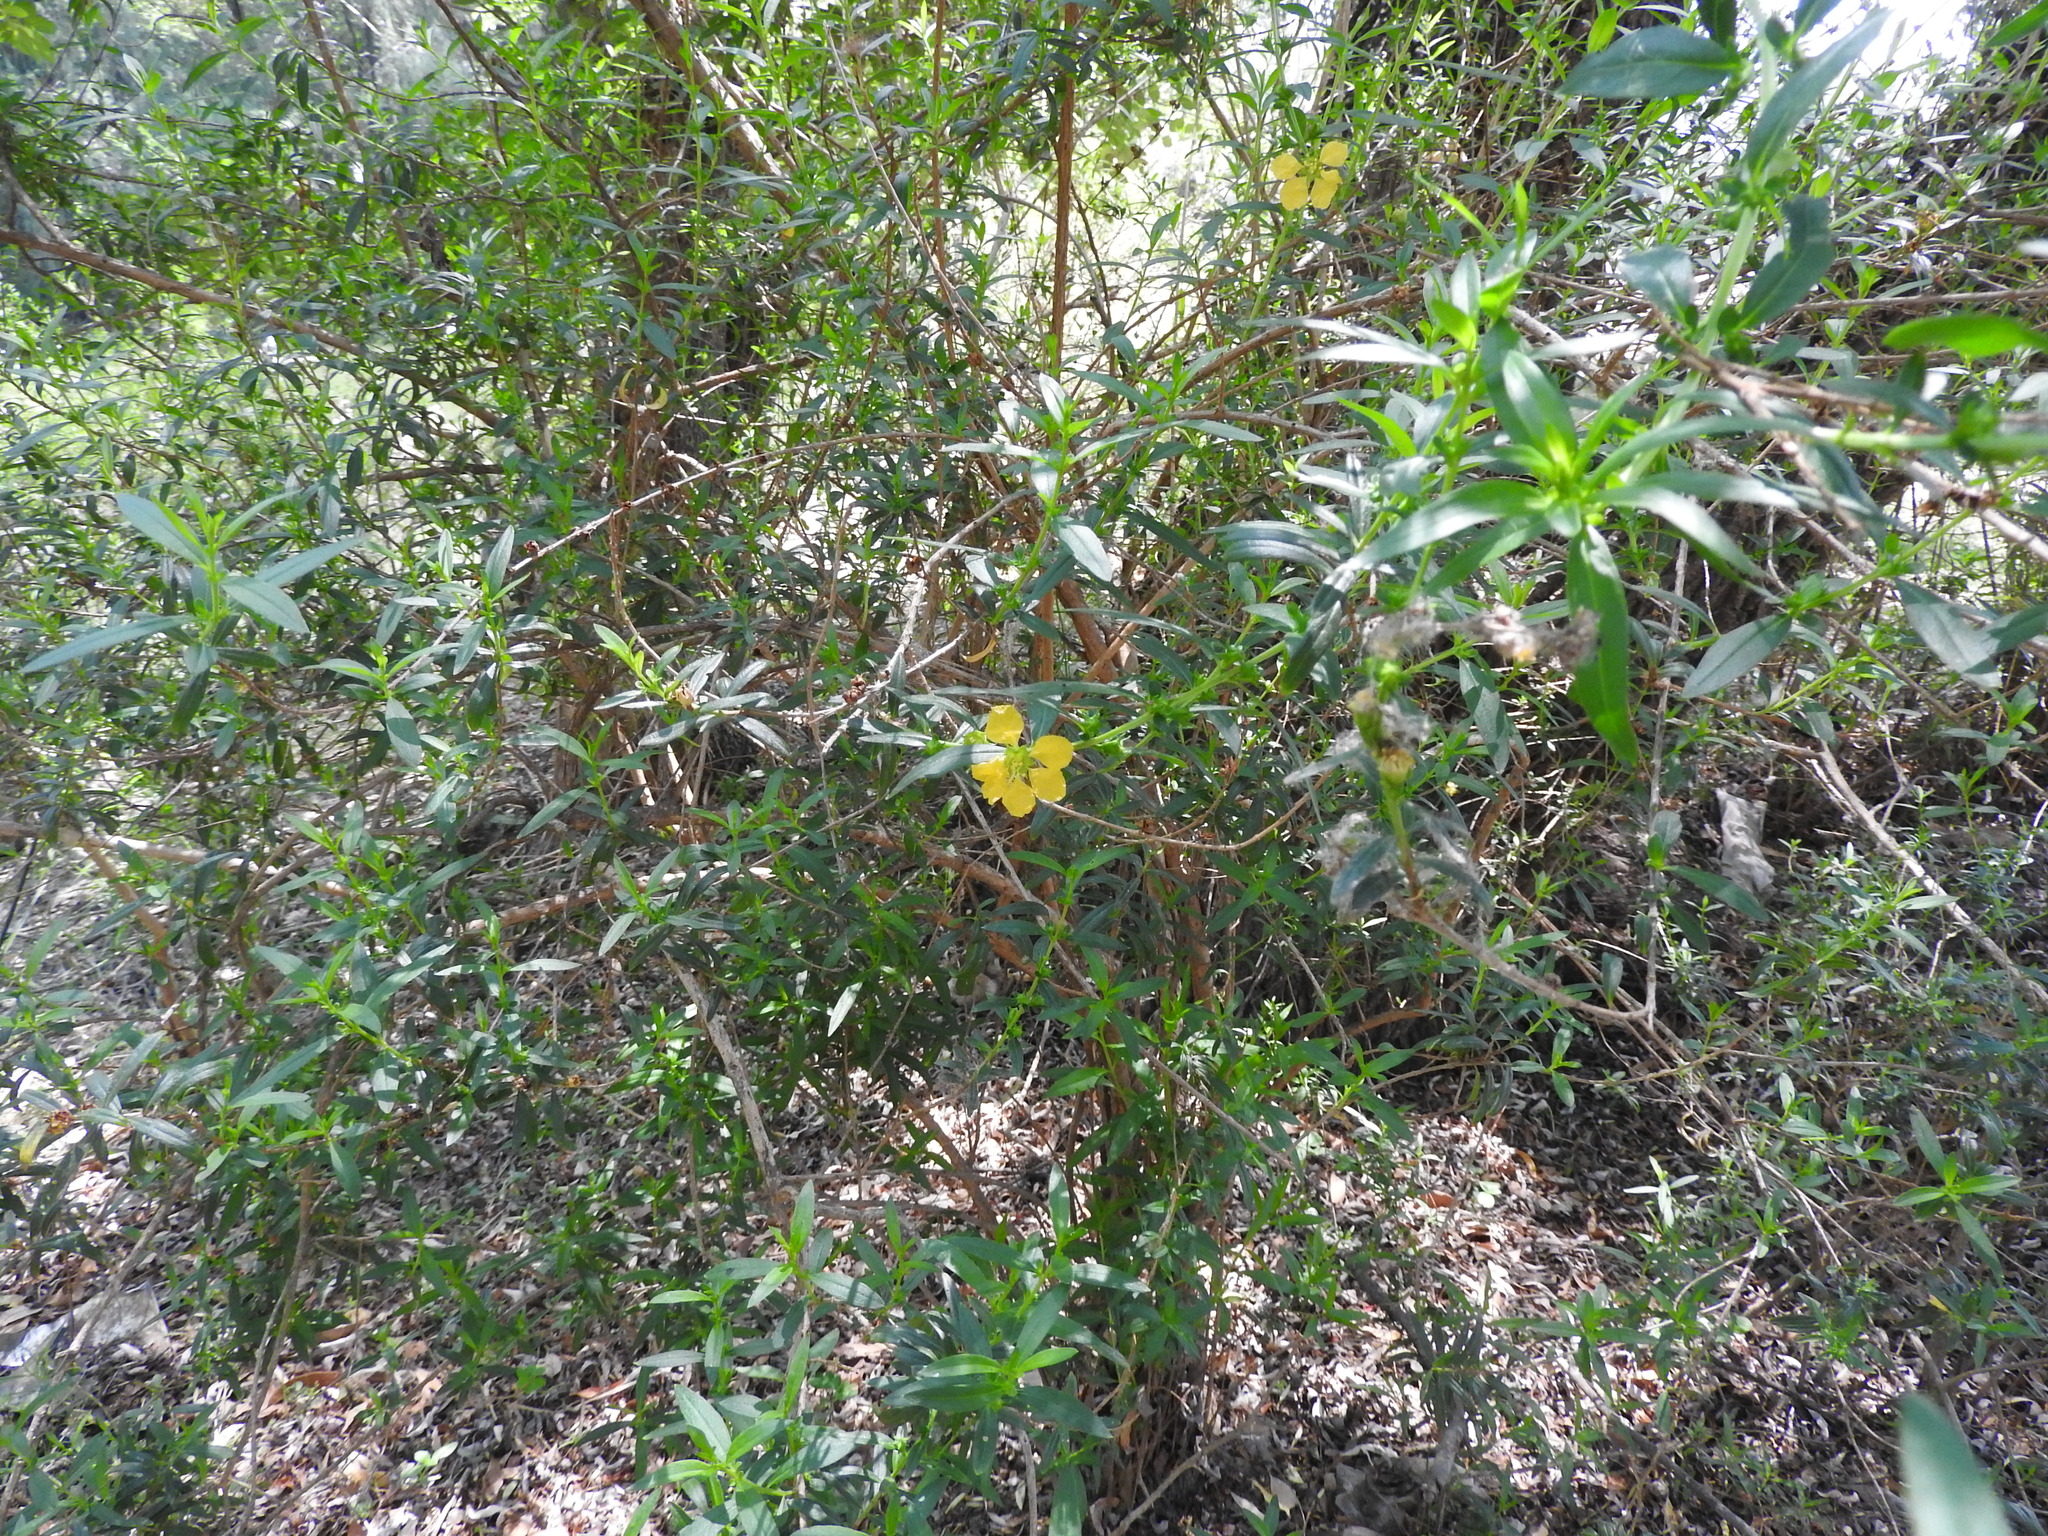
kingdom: Plantae
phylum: Tracheophyta
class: Magnoliopsida
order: Myrtales
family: Lythraceae
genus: Heimia
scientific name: Heimia salicifolia
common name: Willow-leaf heimia
